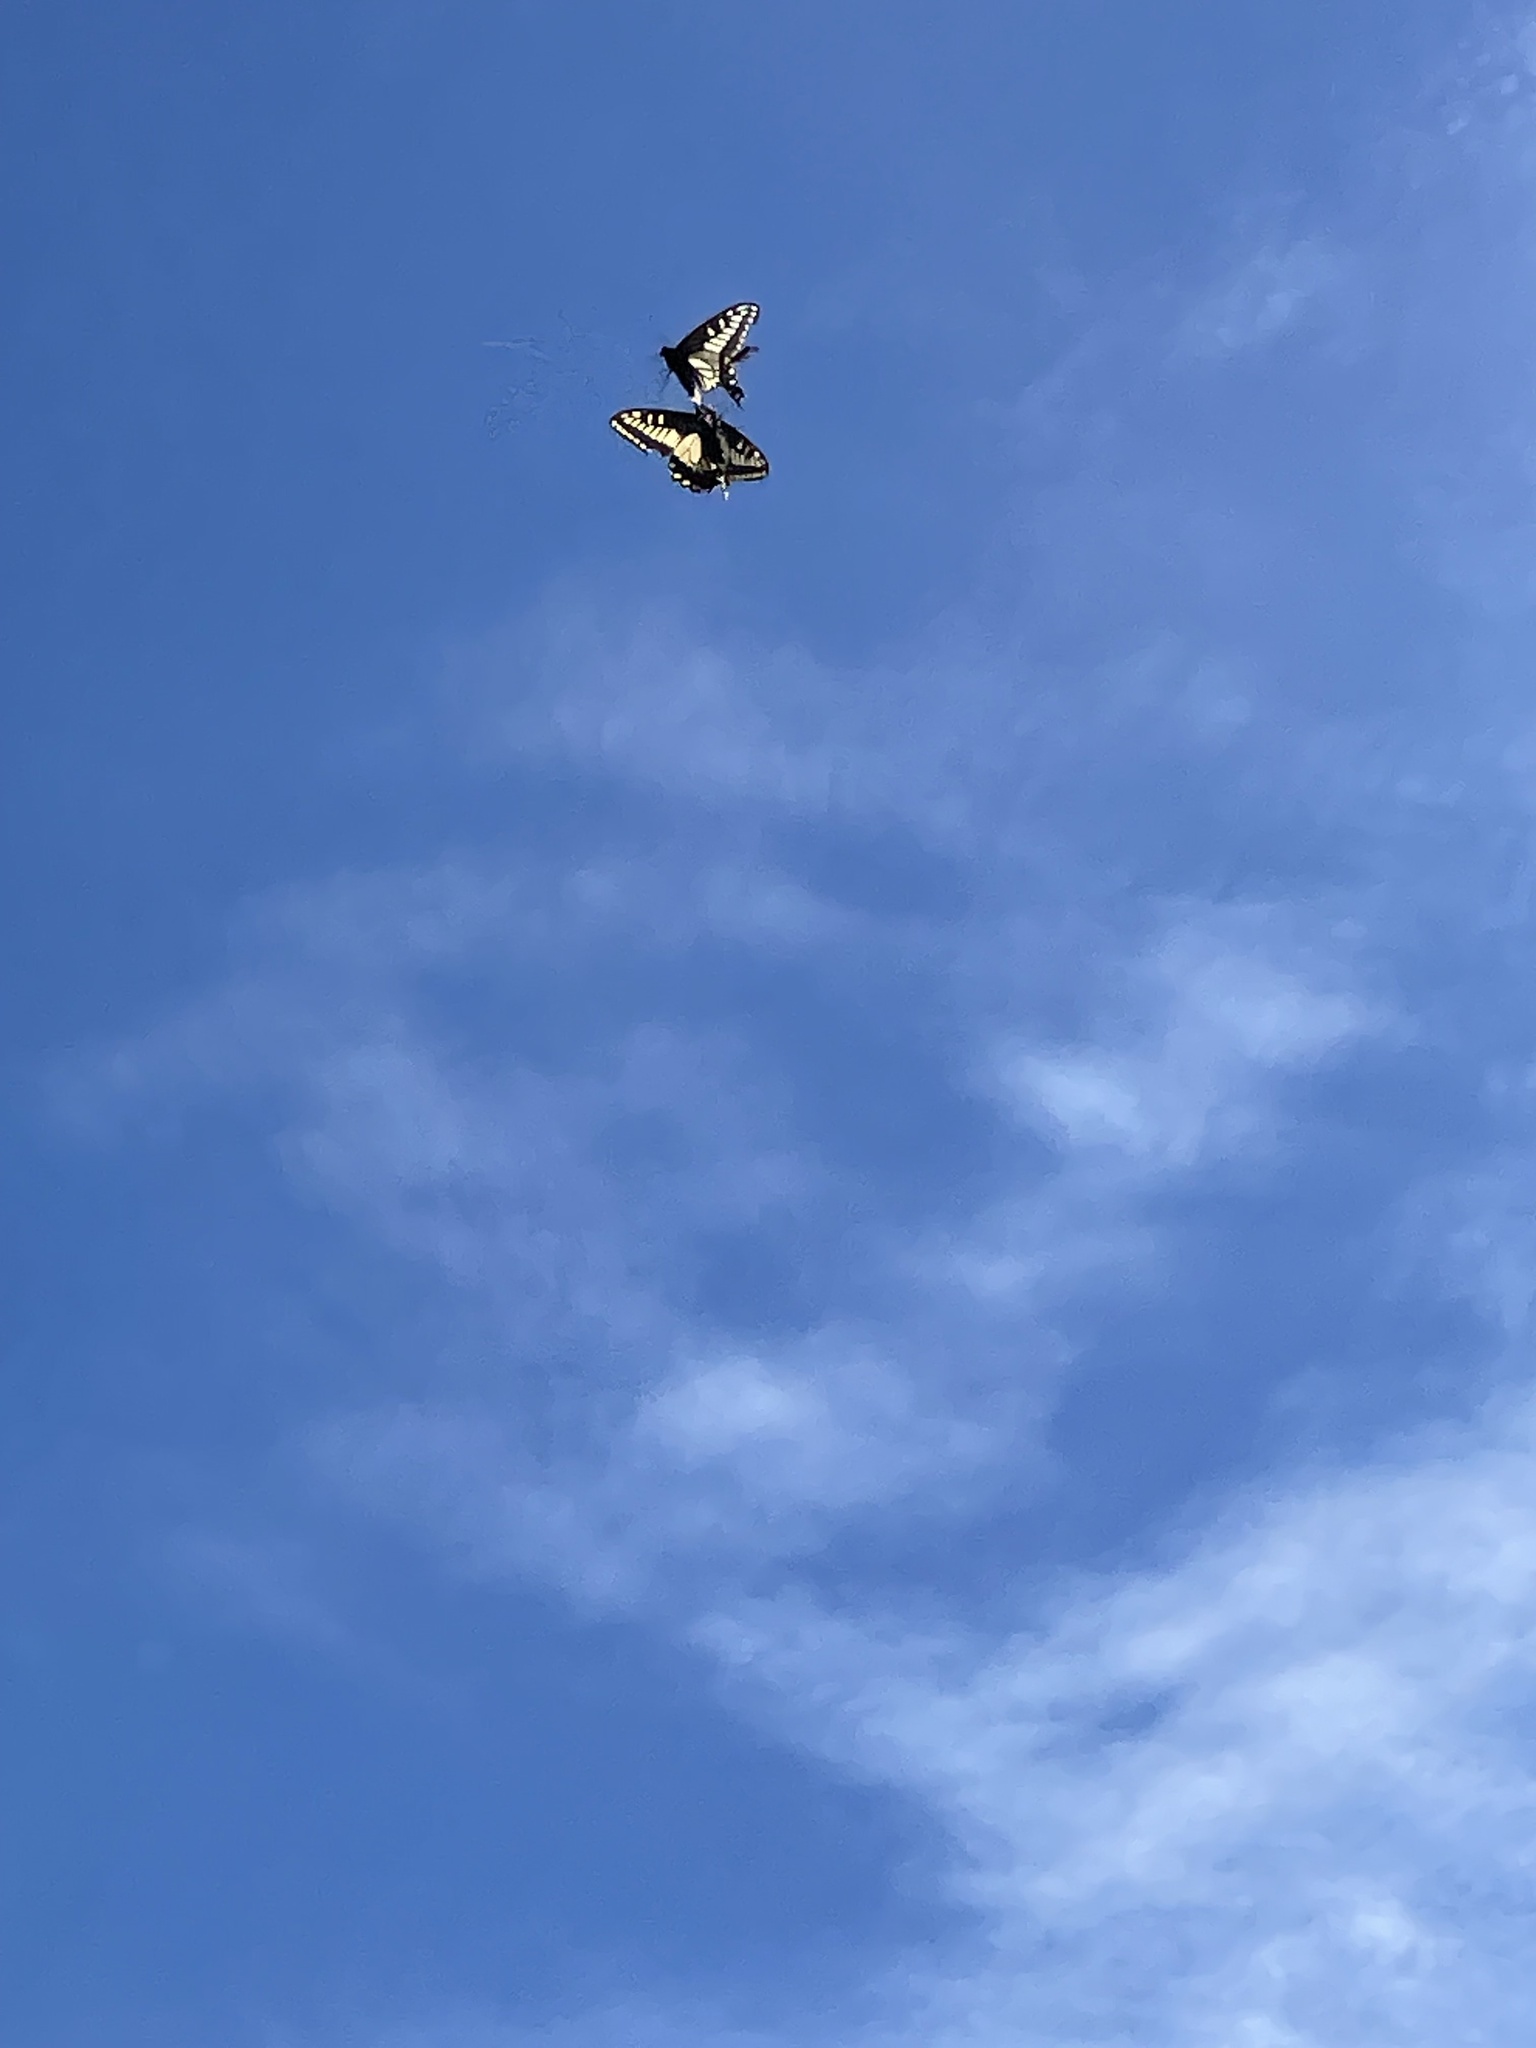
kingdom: Animalia
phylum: Arthropoda
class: Insecta
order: Lepidoptera
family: Papilionidae
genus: Papilio
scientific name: Papilio zelicaon
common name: Anise swallowtail
